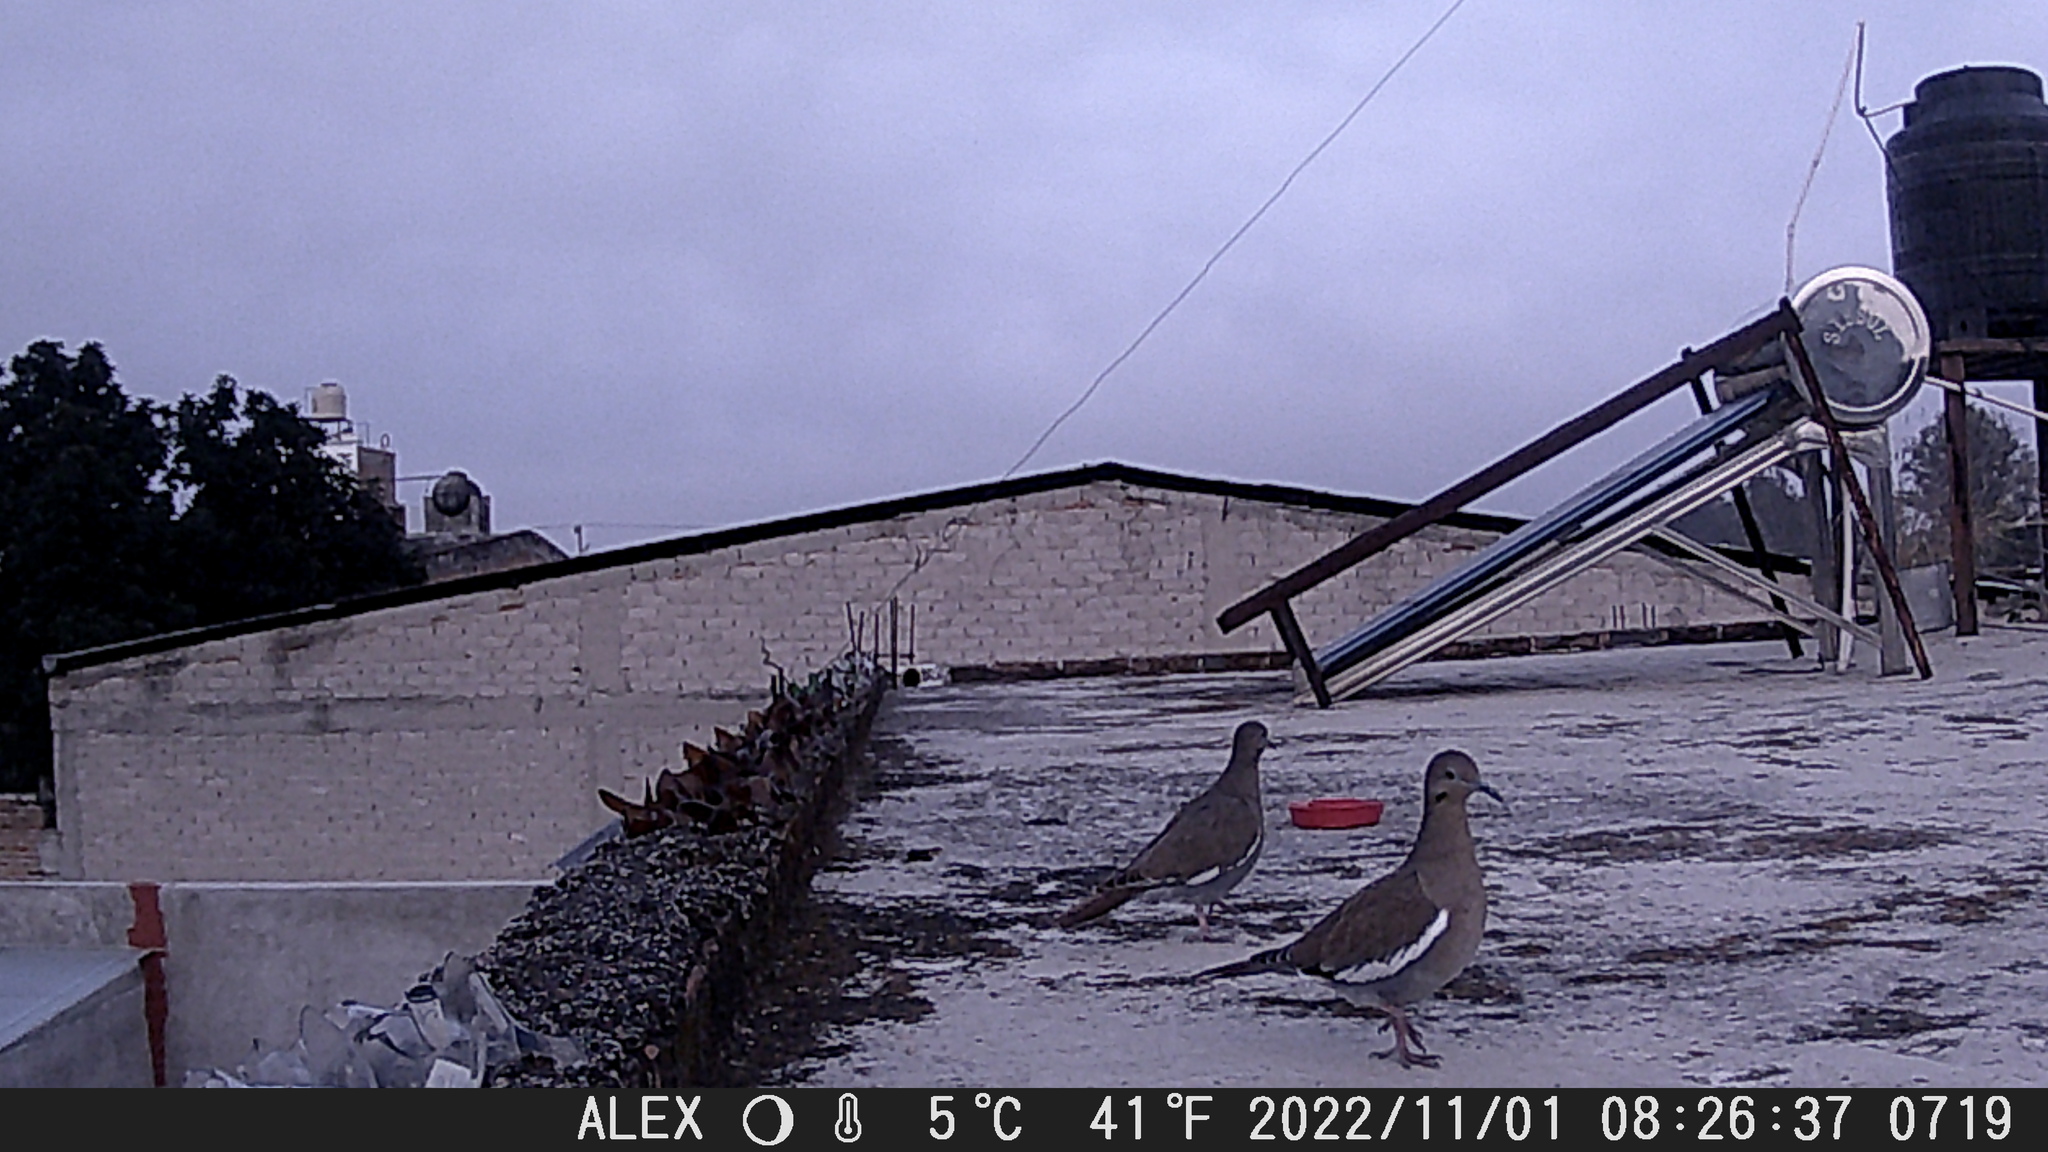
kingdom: Animalia
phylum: Chordata
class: Aves
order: Columbiformes
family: Columbidae
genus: Zenaida
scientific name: Zenaida asiatica
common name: White-winged dove
